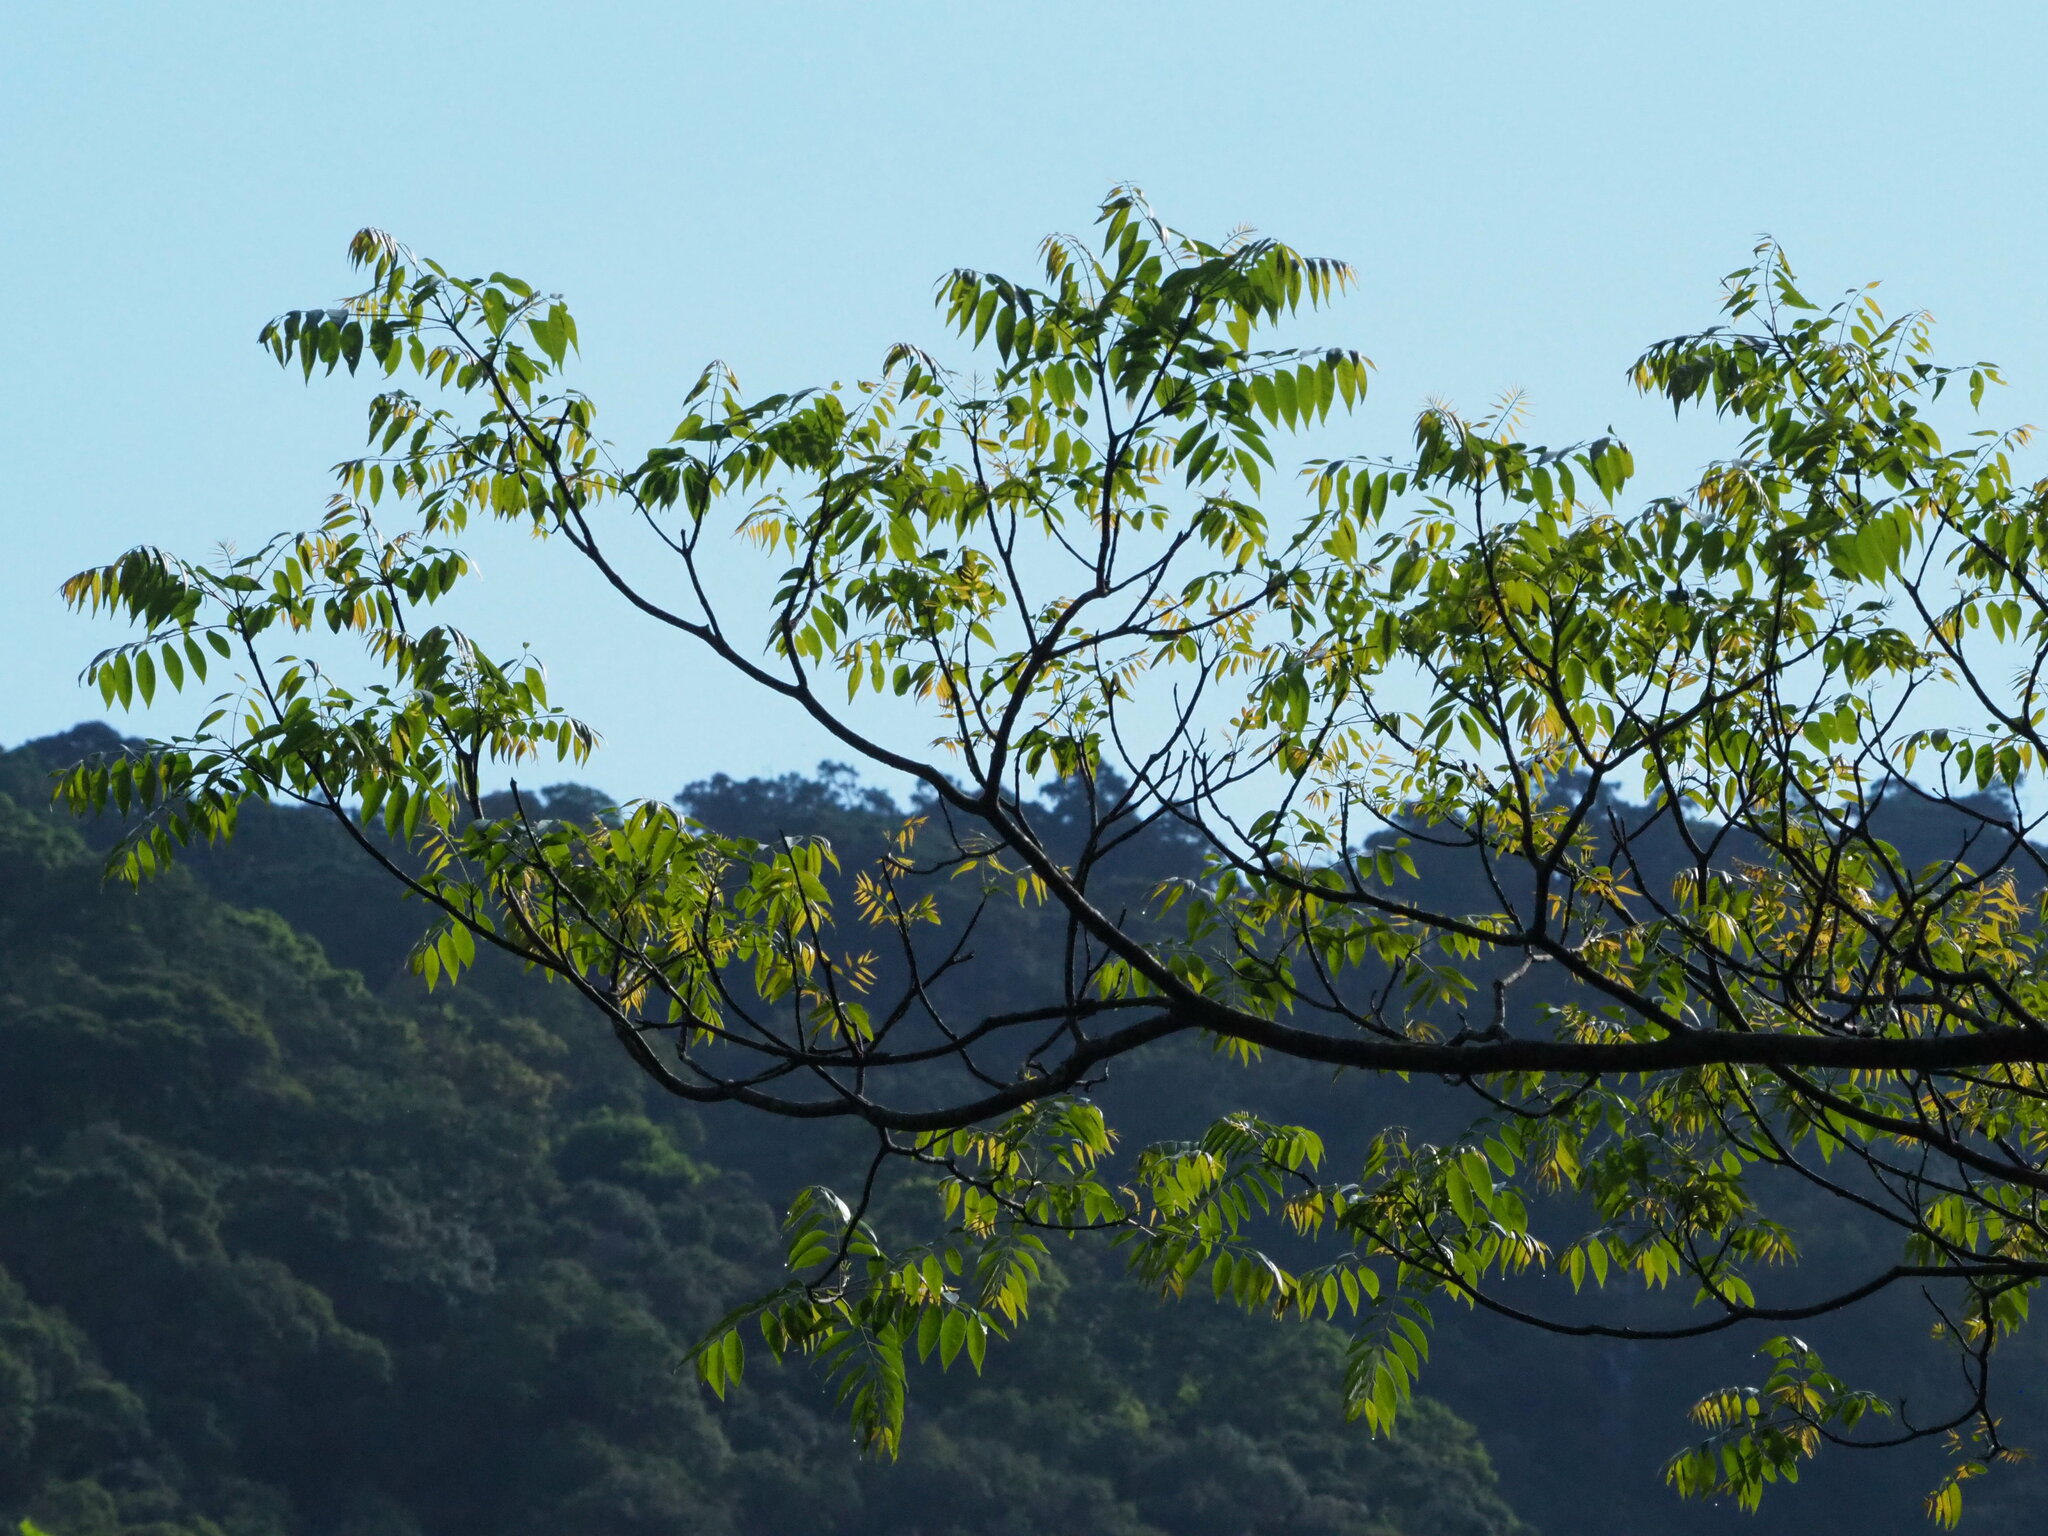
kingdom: Plantae
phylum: Tracheophyta
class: Magnoliopsida
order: Sapindales
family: Rutaceae
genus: Tetradium
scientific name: Tetradium glabrifolium
